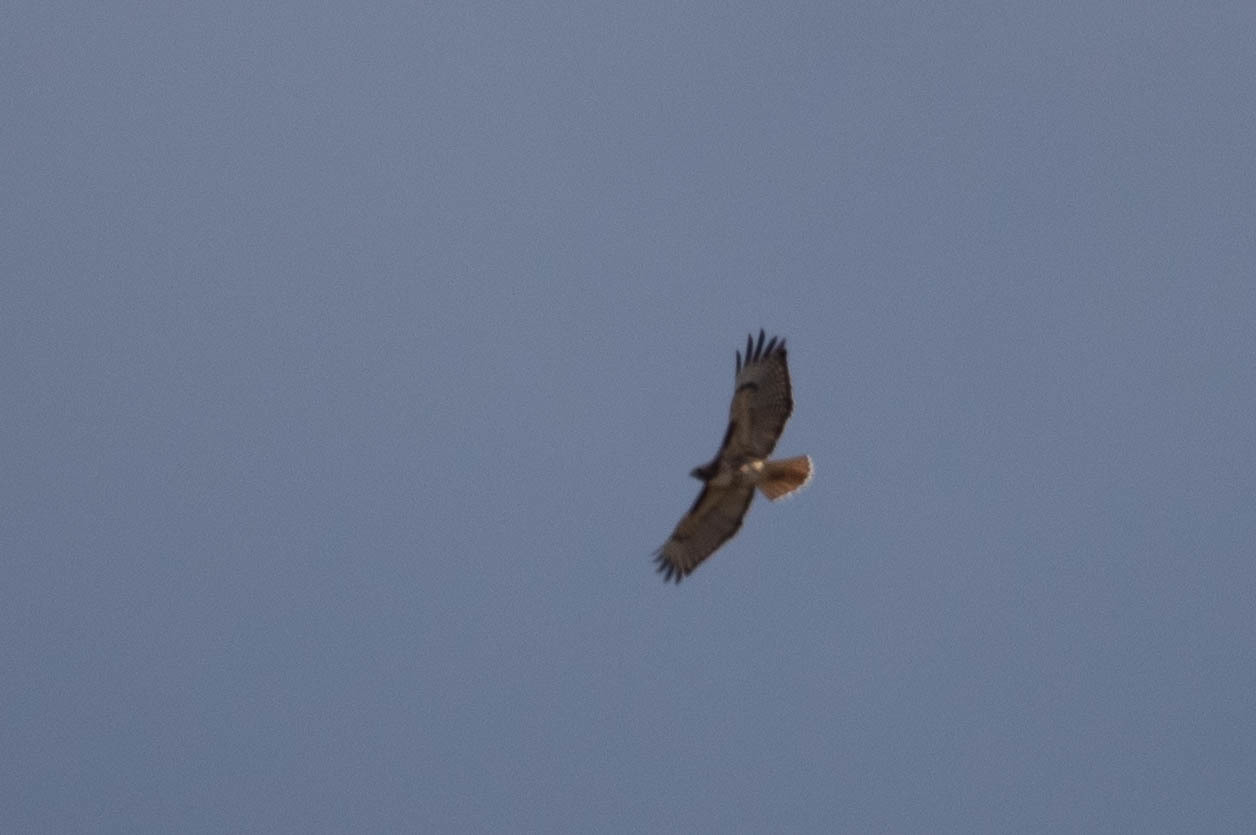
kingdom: Animalia
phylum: Chordata
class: Aves
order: Accipitriformes
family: Accipitridae
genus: Buteo
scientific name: Buteo jamaicensis
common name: Red-tailed hawk
